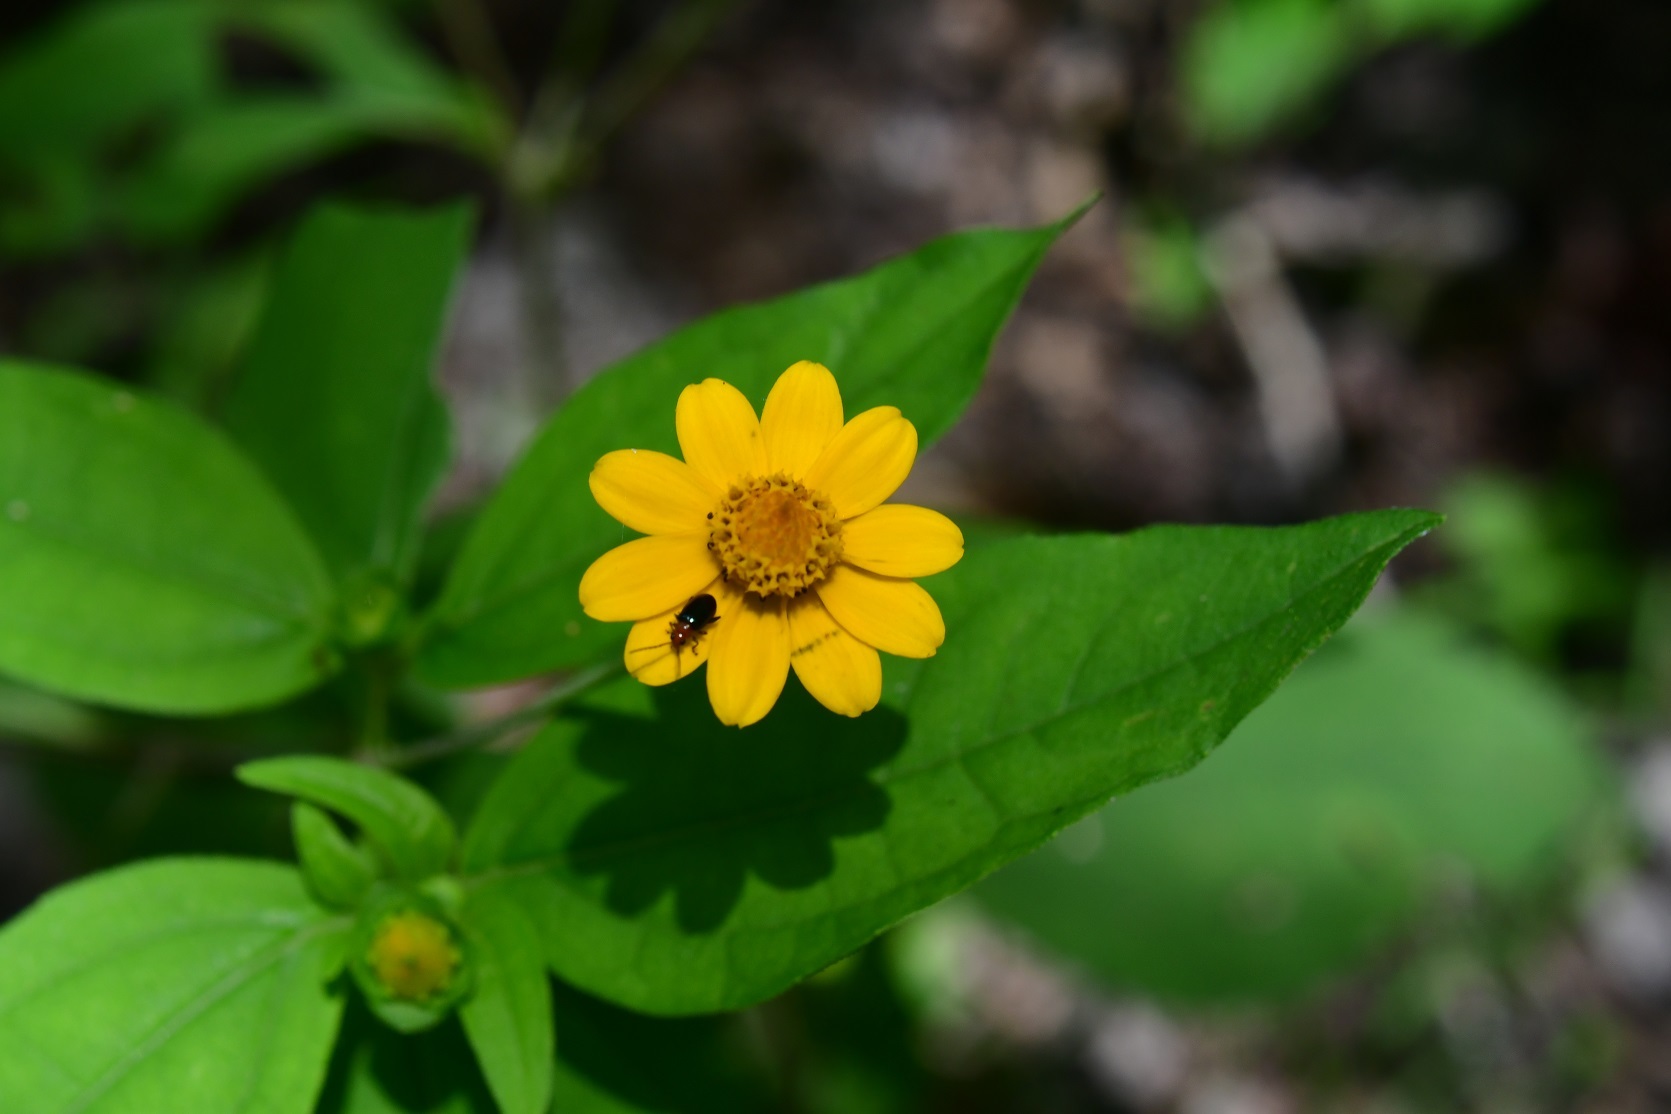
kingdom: Plantae
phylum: Tracheophyta
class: Magnoliopsida
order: Asterales
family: Asteraceae
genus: Melampodium
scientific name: Melampodium divaricatum
